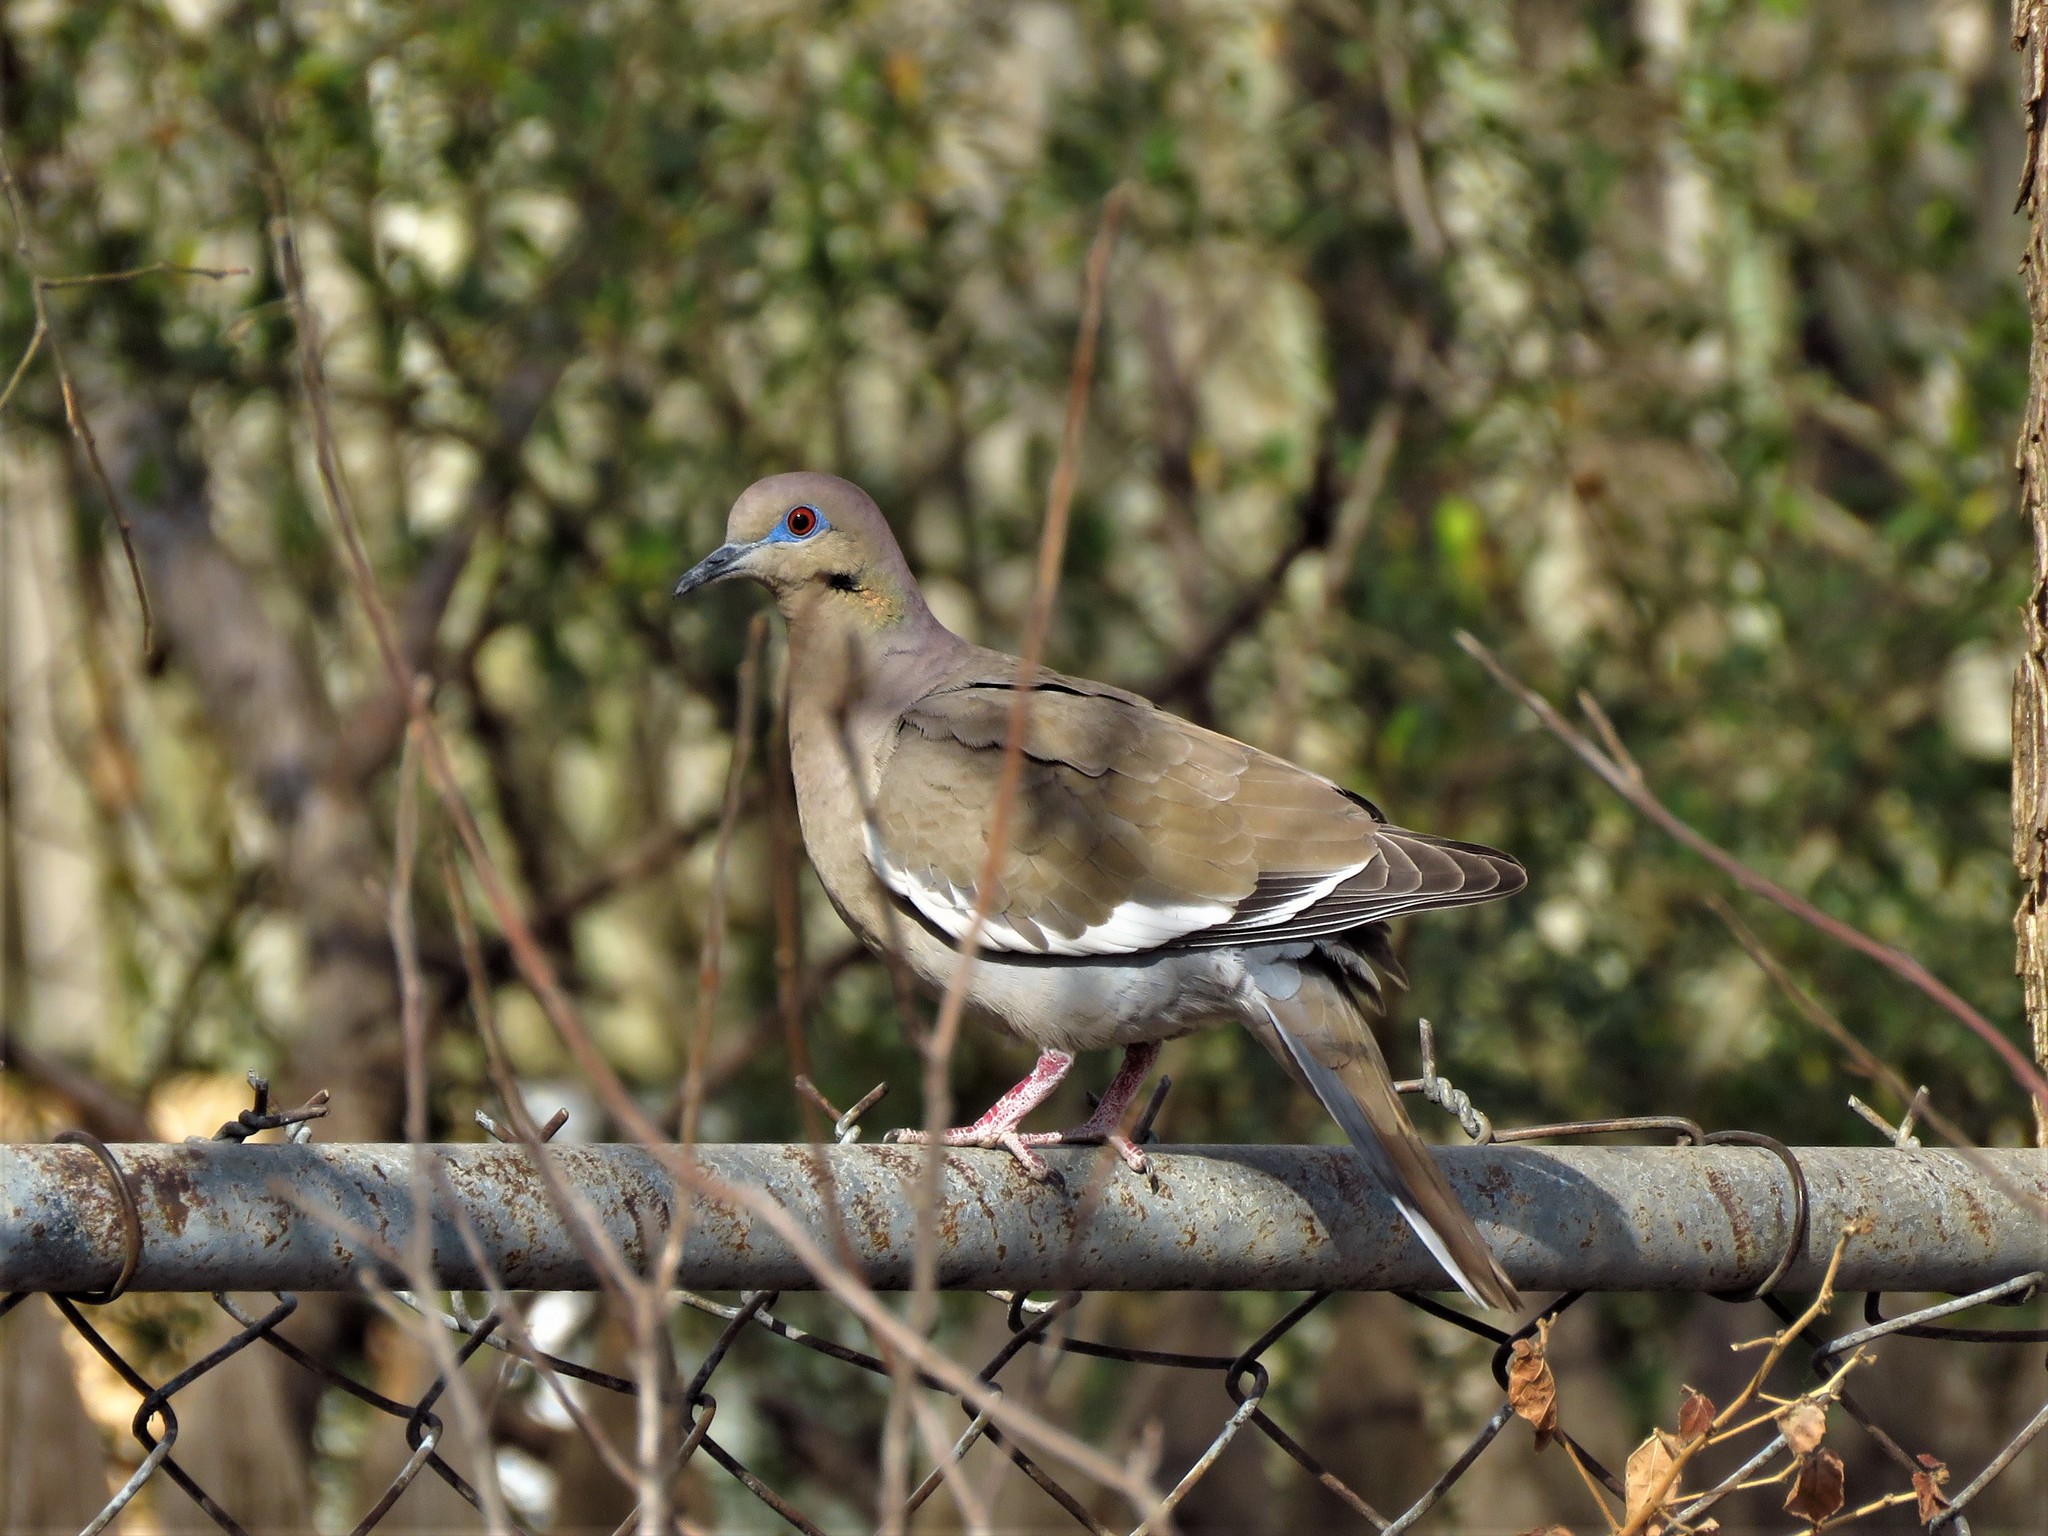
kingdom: Animalia
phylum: Chordata
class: Aves
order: Columbiformes
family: Columbidae
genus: Zenaida
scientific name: Zenaida asiatica
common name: White-winged dove
